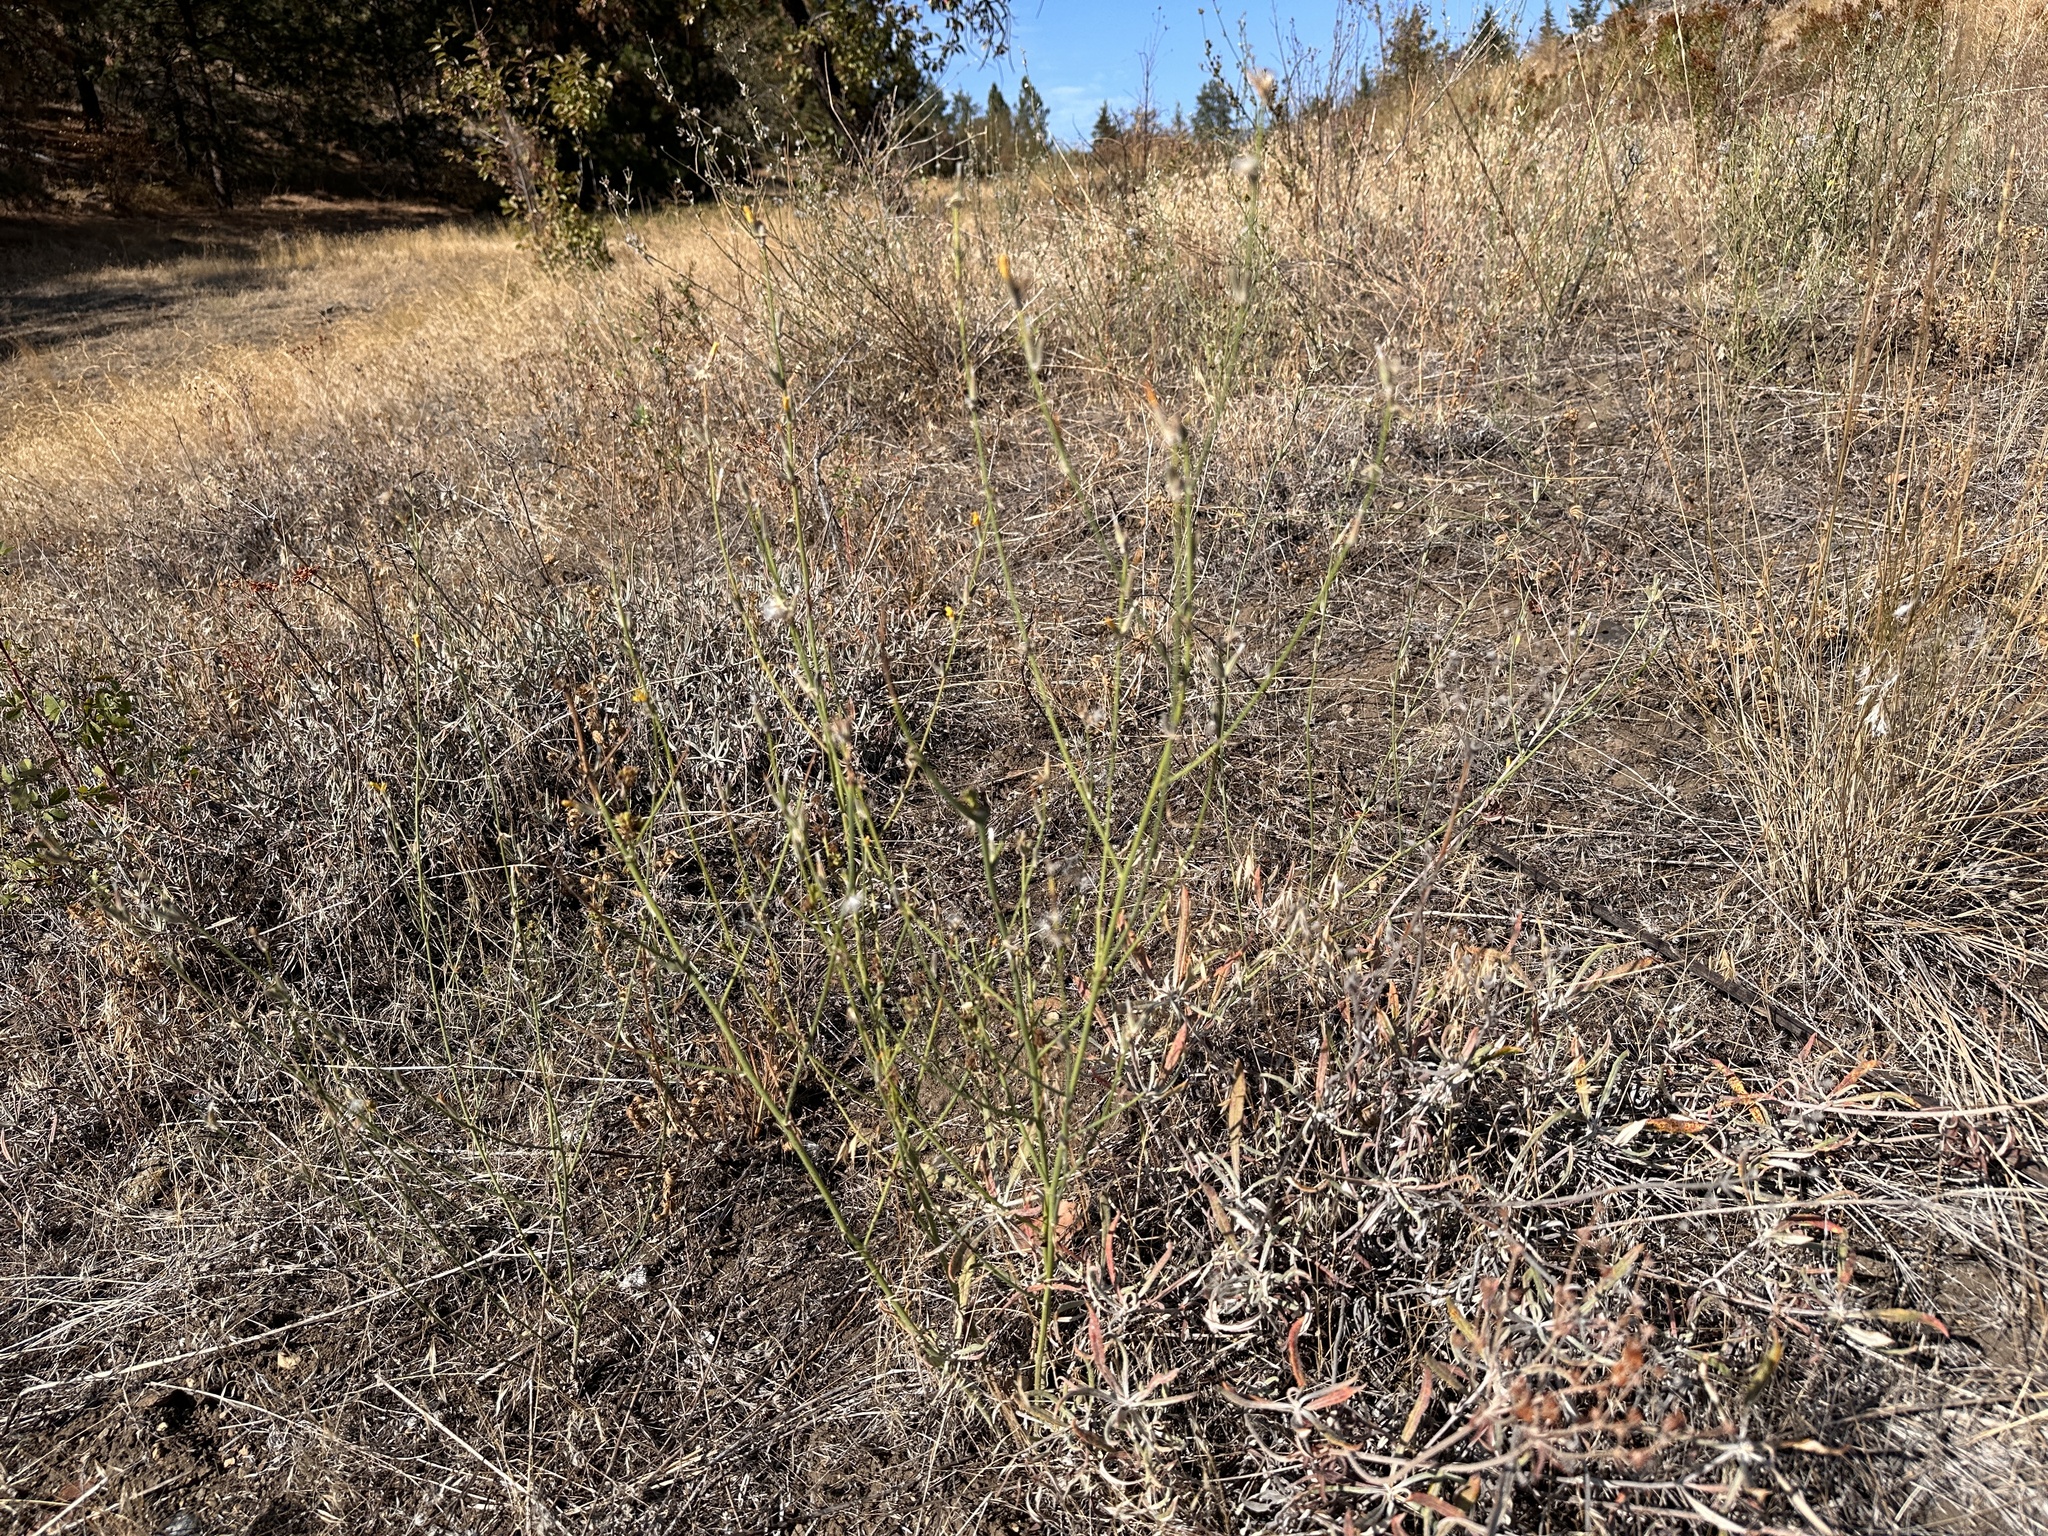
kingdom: Plantae
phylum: Tracheophyta
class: Magnoliopsida
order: Asterales
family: Asteraceae
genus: Chondrilla
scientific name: Chondrilla juncea
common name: Skeleton weed
